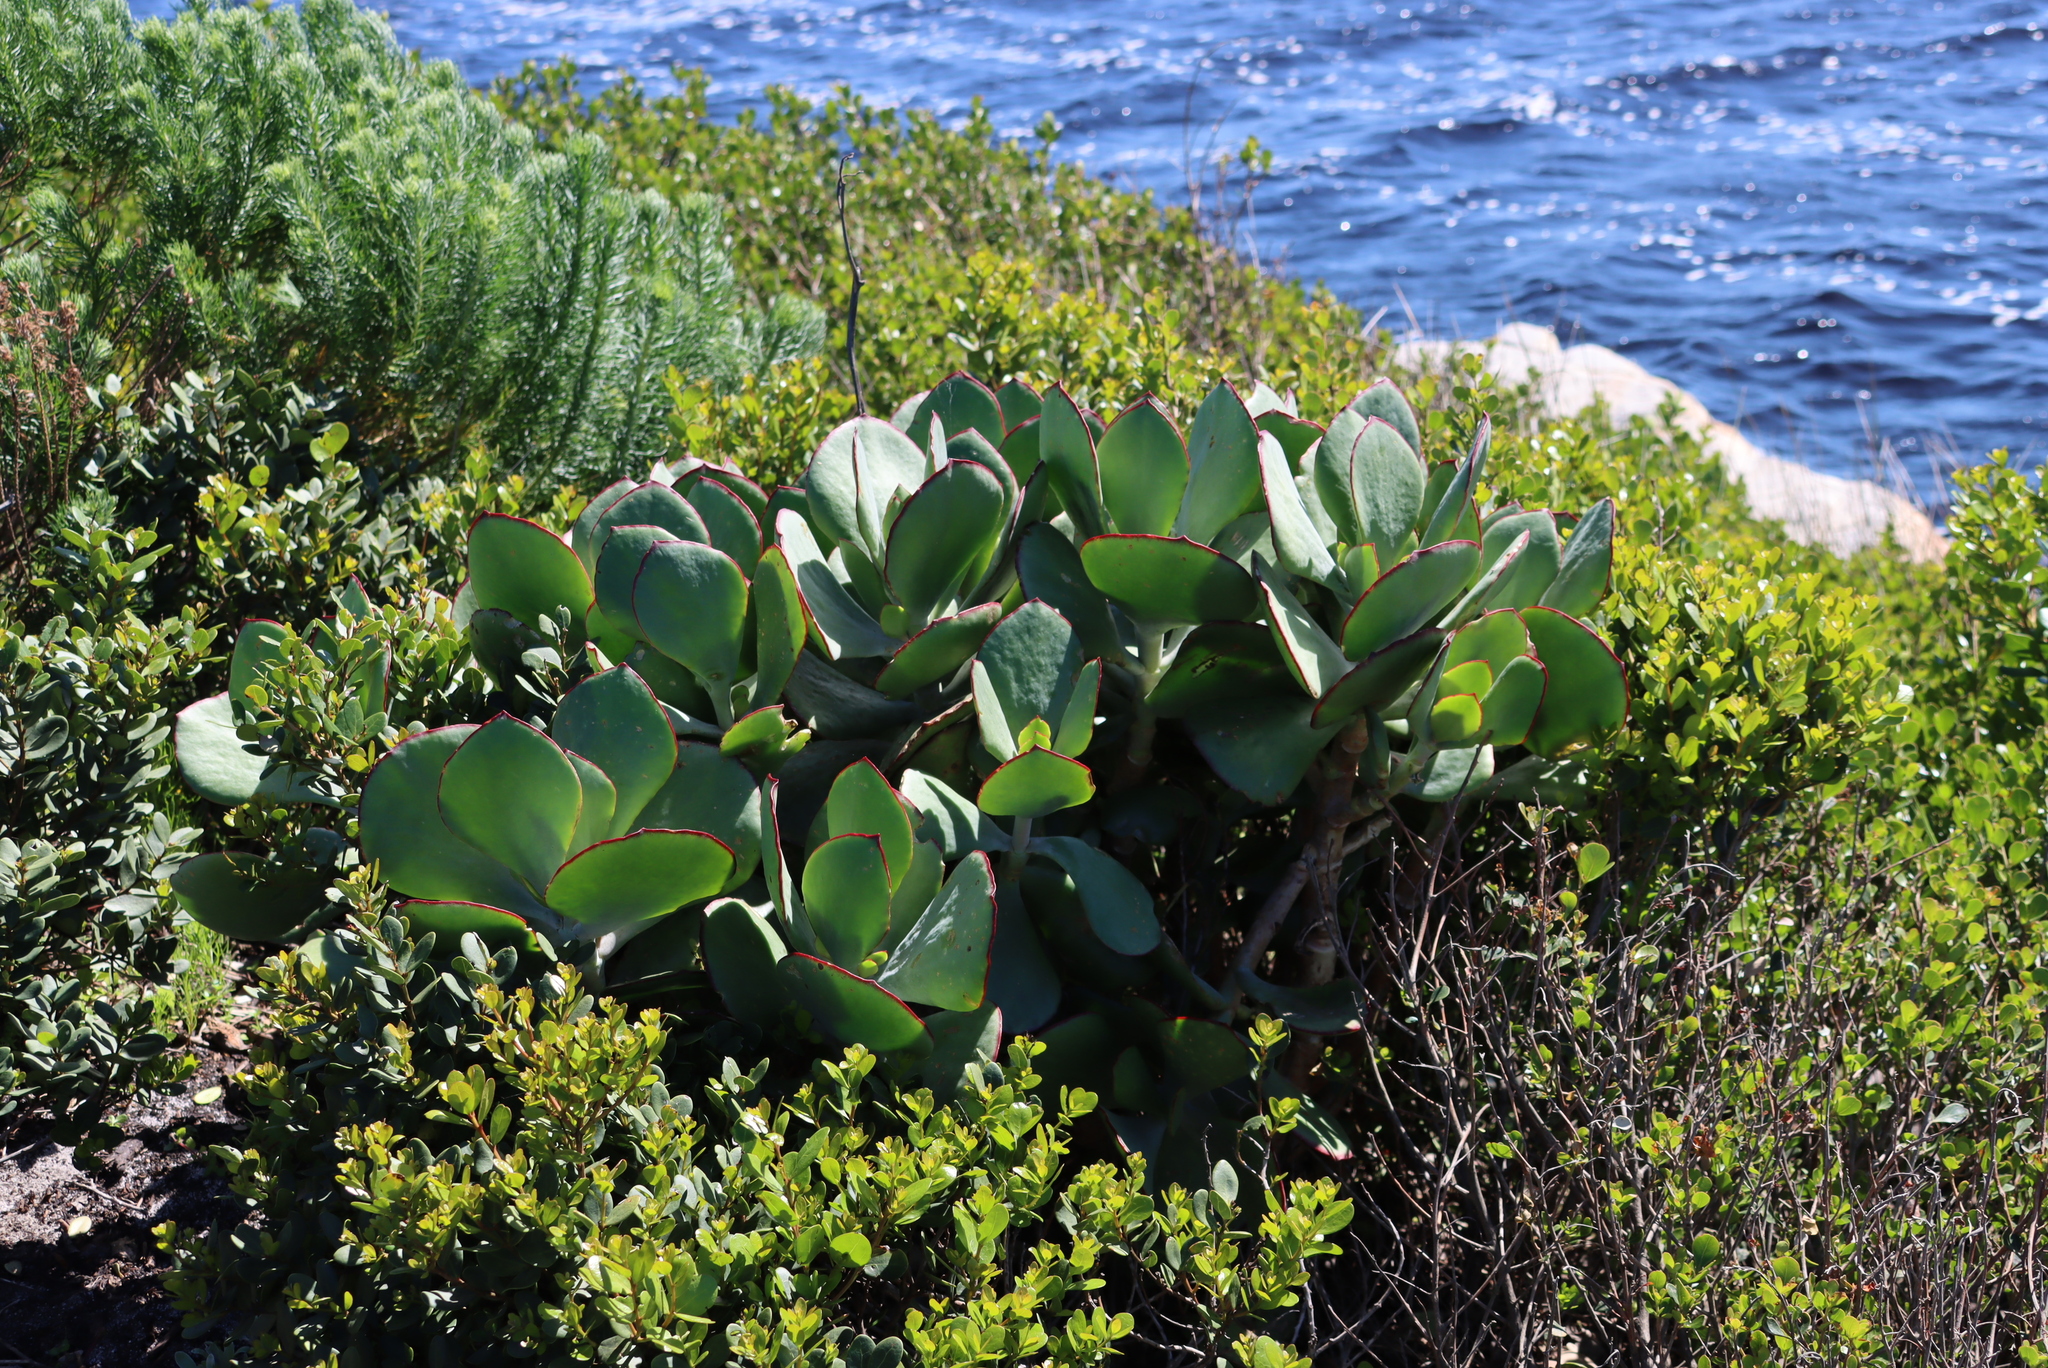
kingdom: Plantae
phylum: Tracheophyta
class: Magnoliopsida
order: Saxifragales
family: Crassulaceae
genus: Cotyledon
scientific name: Cotyledon orbiculata
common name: Pig's ear
